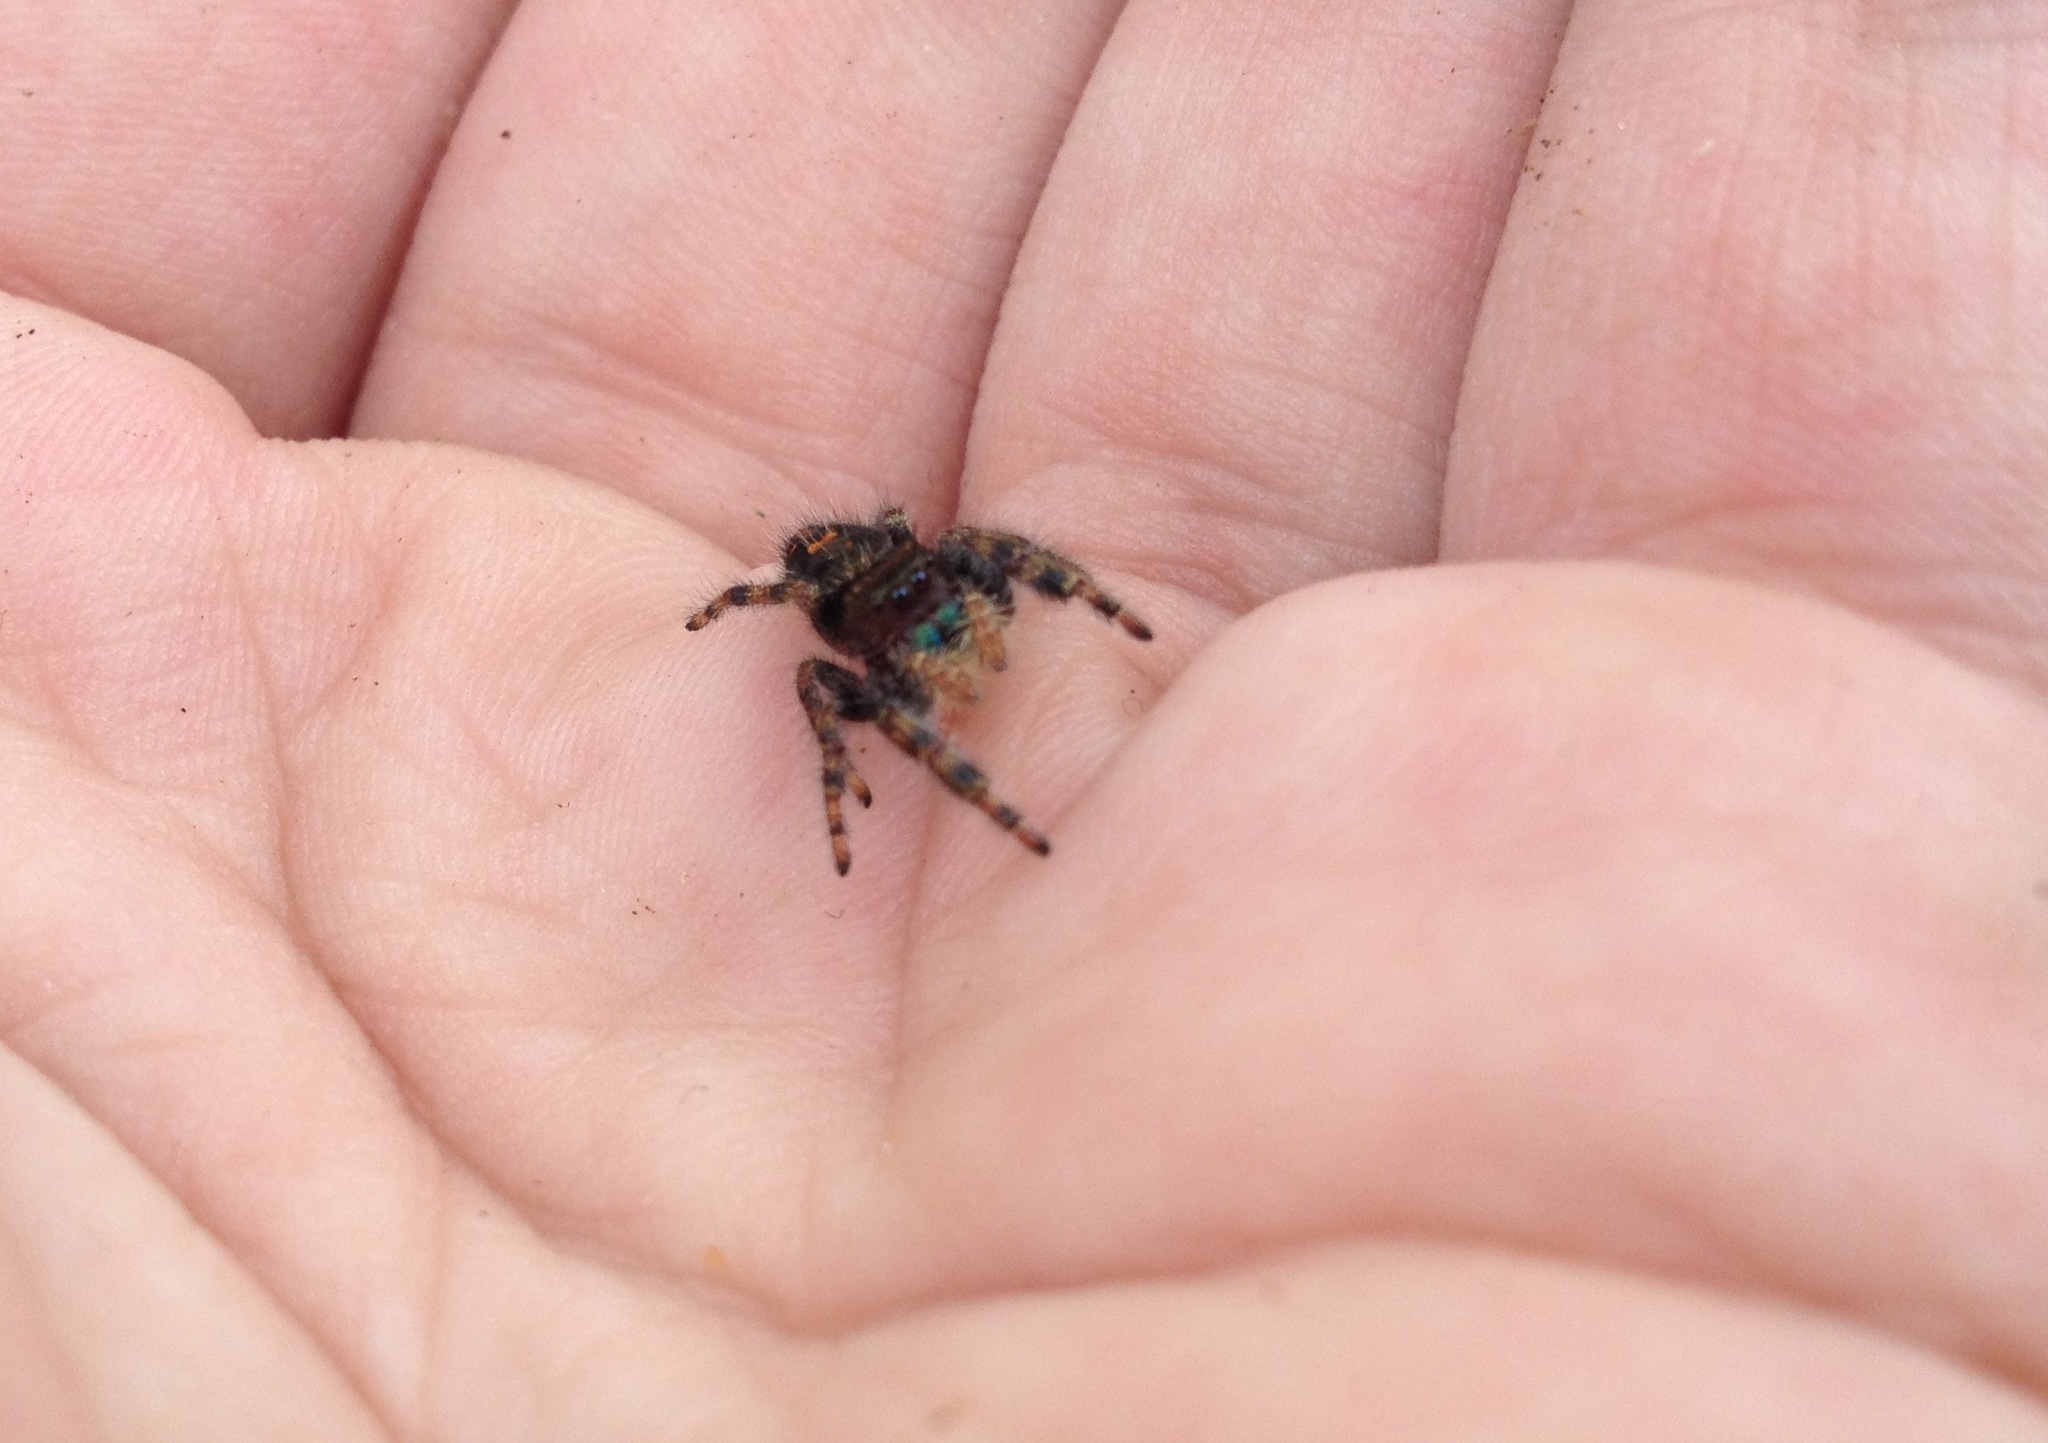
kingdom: Animalia
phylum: Arthropoda
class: Arachnida
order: Araneae
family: Salticidae
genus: Phidippus
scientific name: Phidippus audax
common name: Bold jumper
